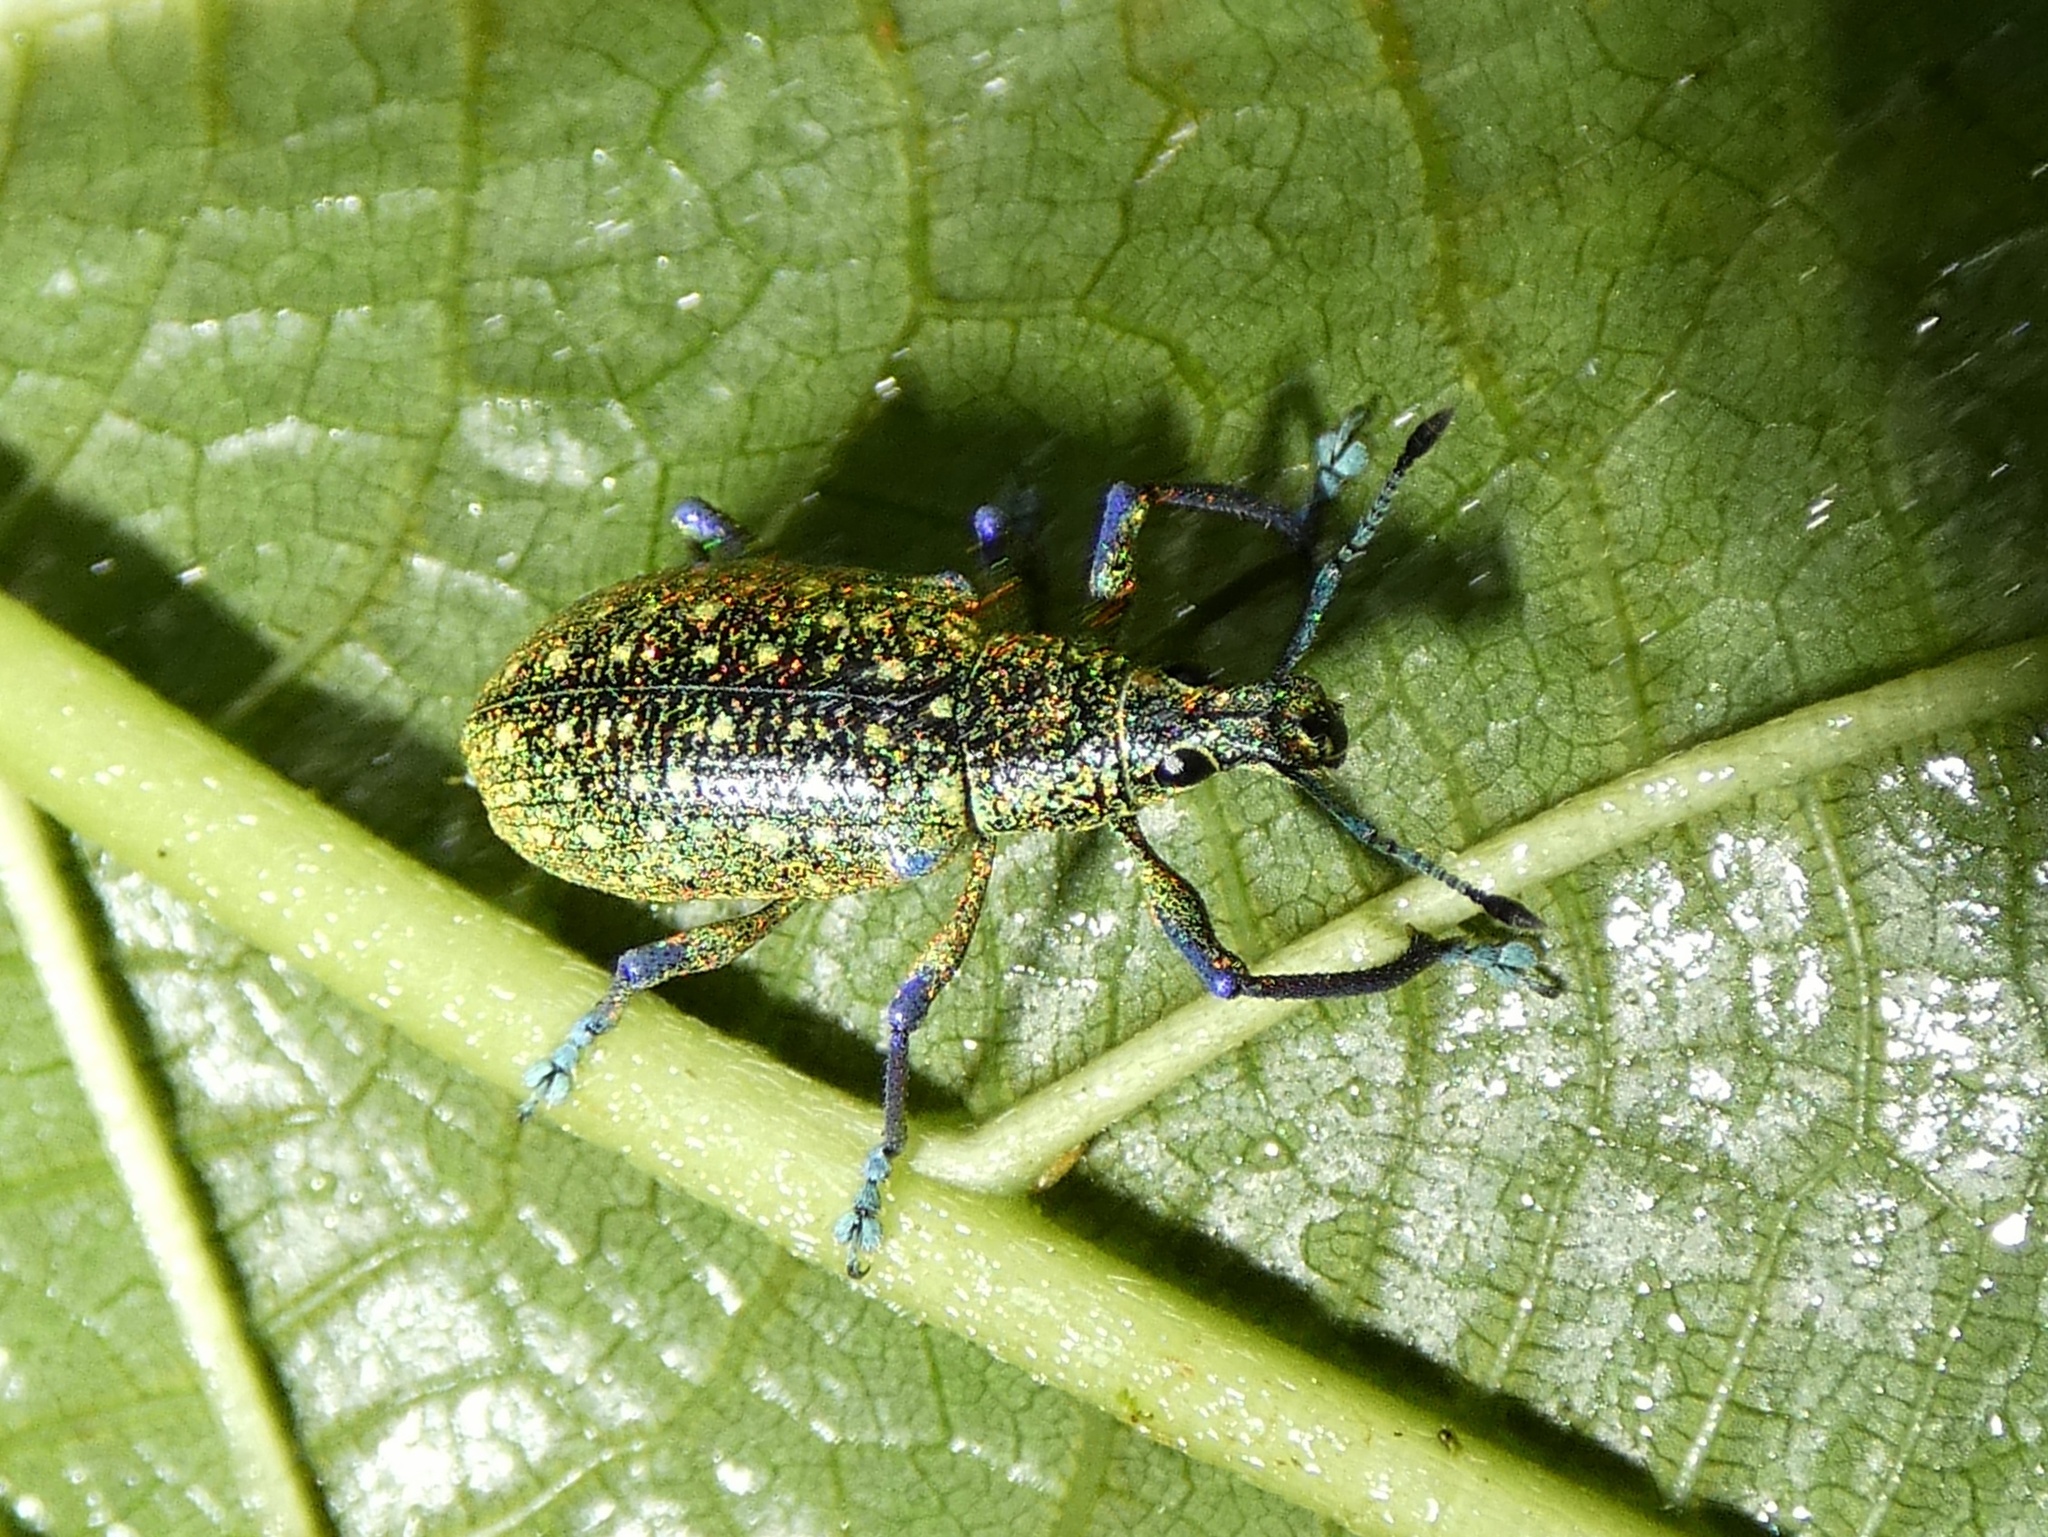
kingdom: Animalia
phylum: Arthropoda
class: Insecta
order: Coleoptera
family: Curculionidae
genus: Exophthalmus
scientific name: Exophthalmus jekelianus
